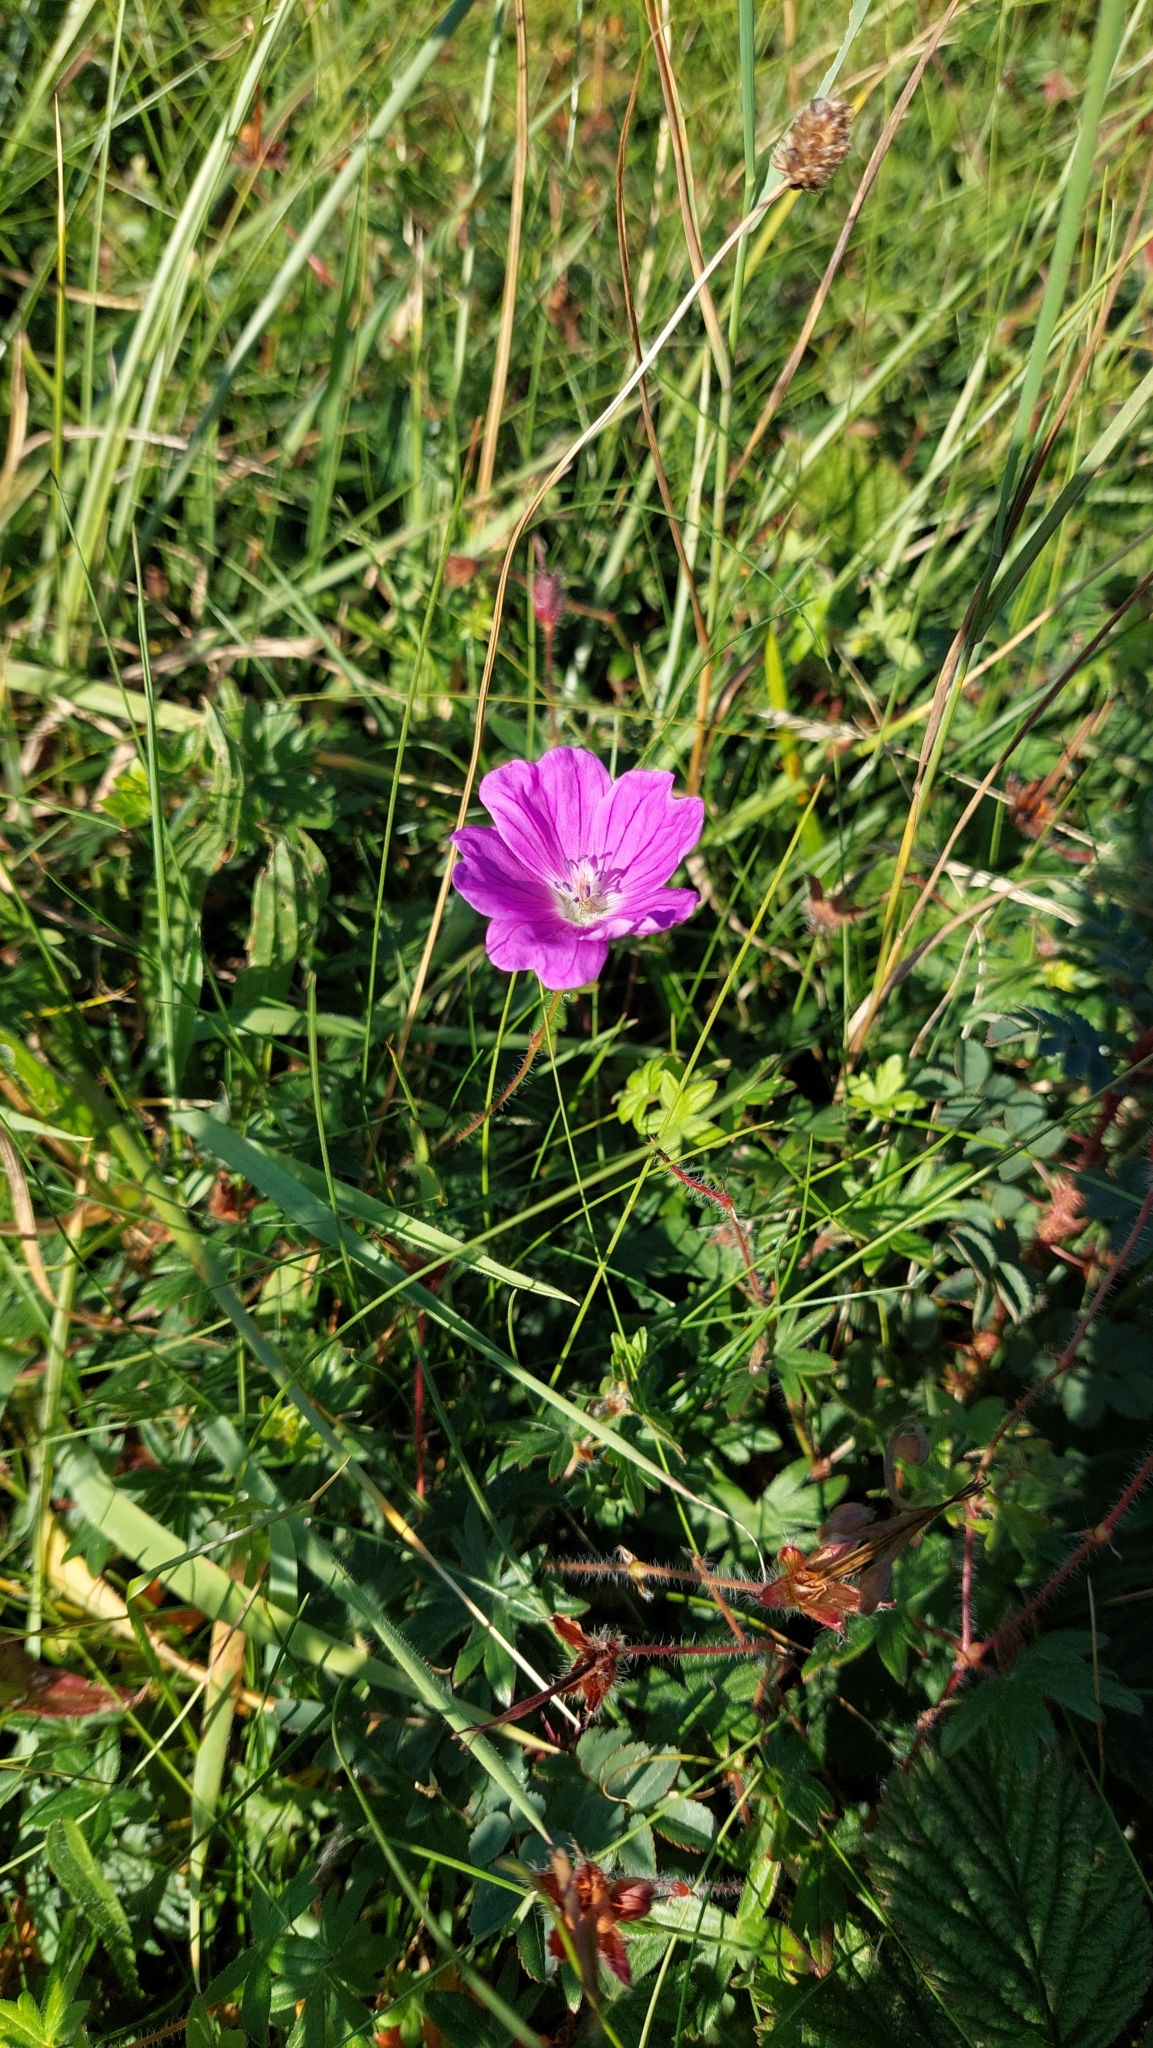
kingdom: Plantae
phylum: Tracheophyta
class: Magnoliopsida
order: Geraniales
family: Geraniaceae
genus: Geranium
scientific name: Geranium sanguineum
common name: Bloody crane's-bill
